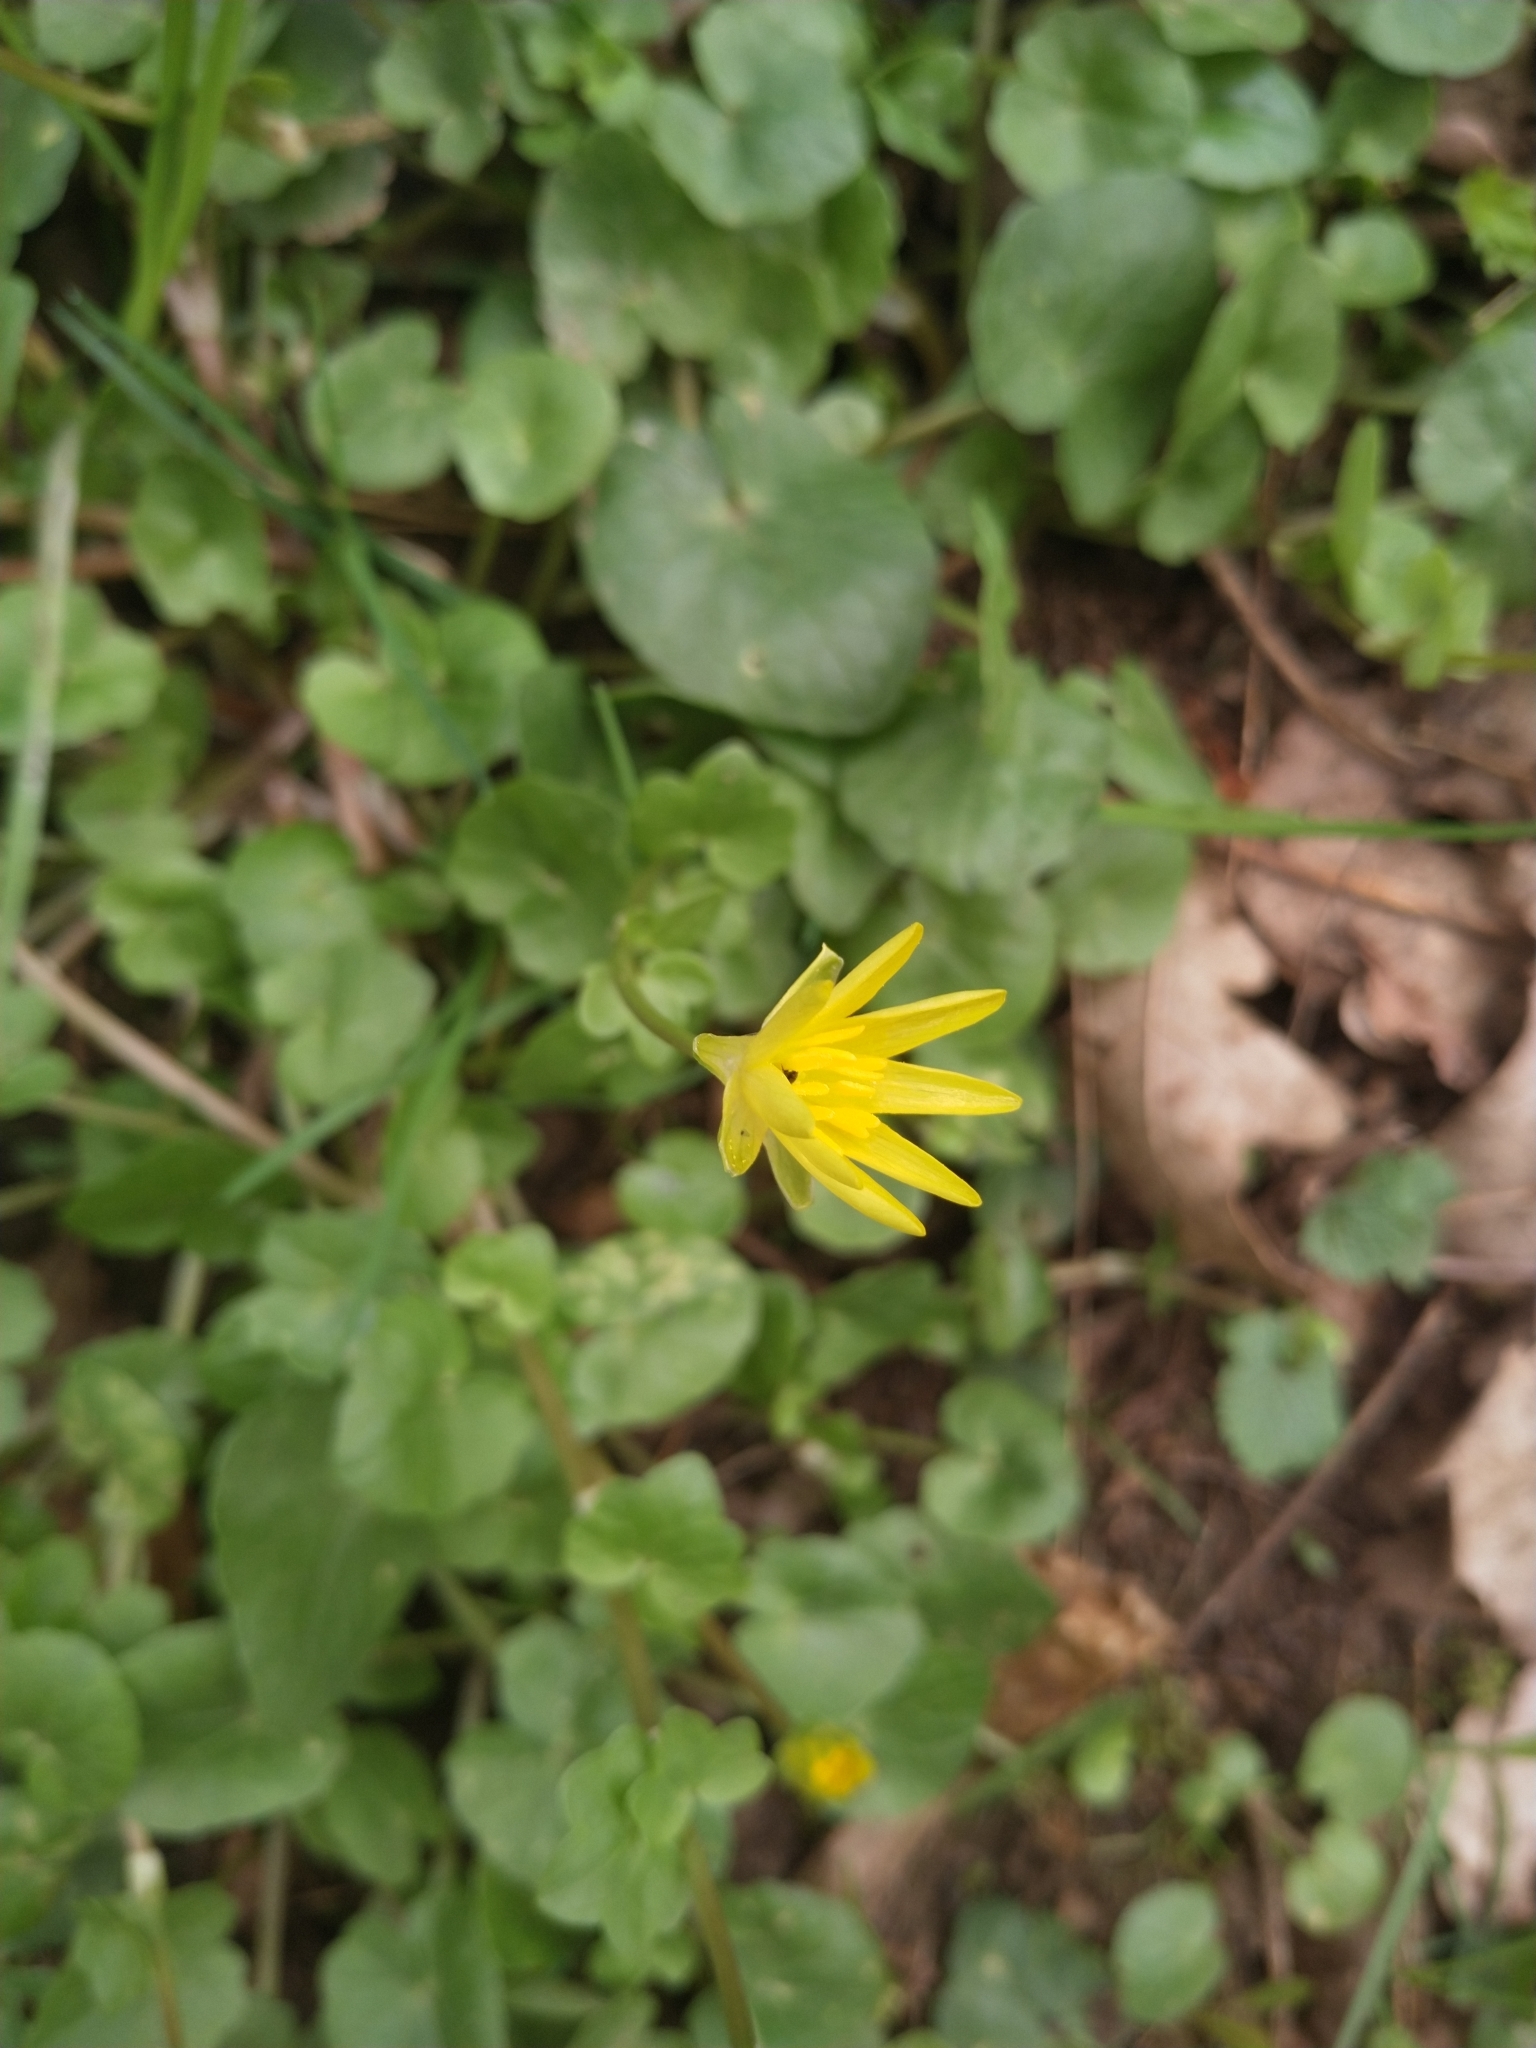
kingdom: Plantae
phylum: Tracheophyta
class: Magnoliopsida
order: Ranunculales
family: Ranunculaceae
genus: Ficaria
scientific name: Ficaria verna
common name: Lesser celandine
